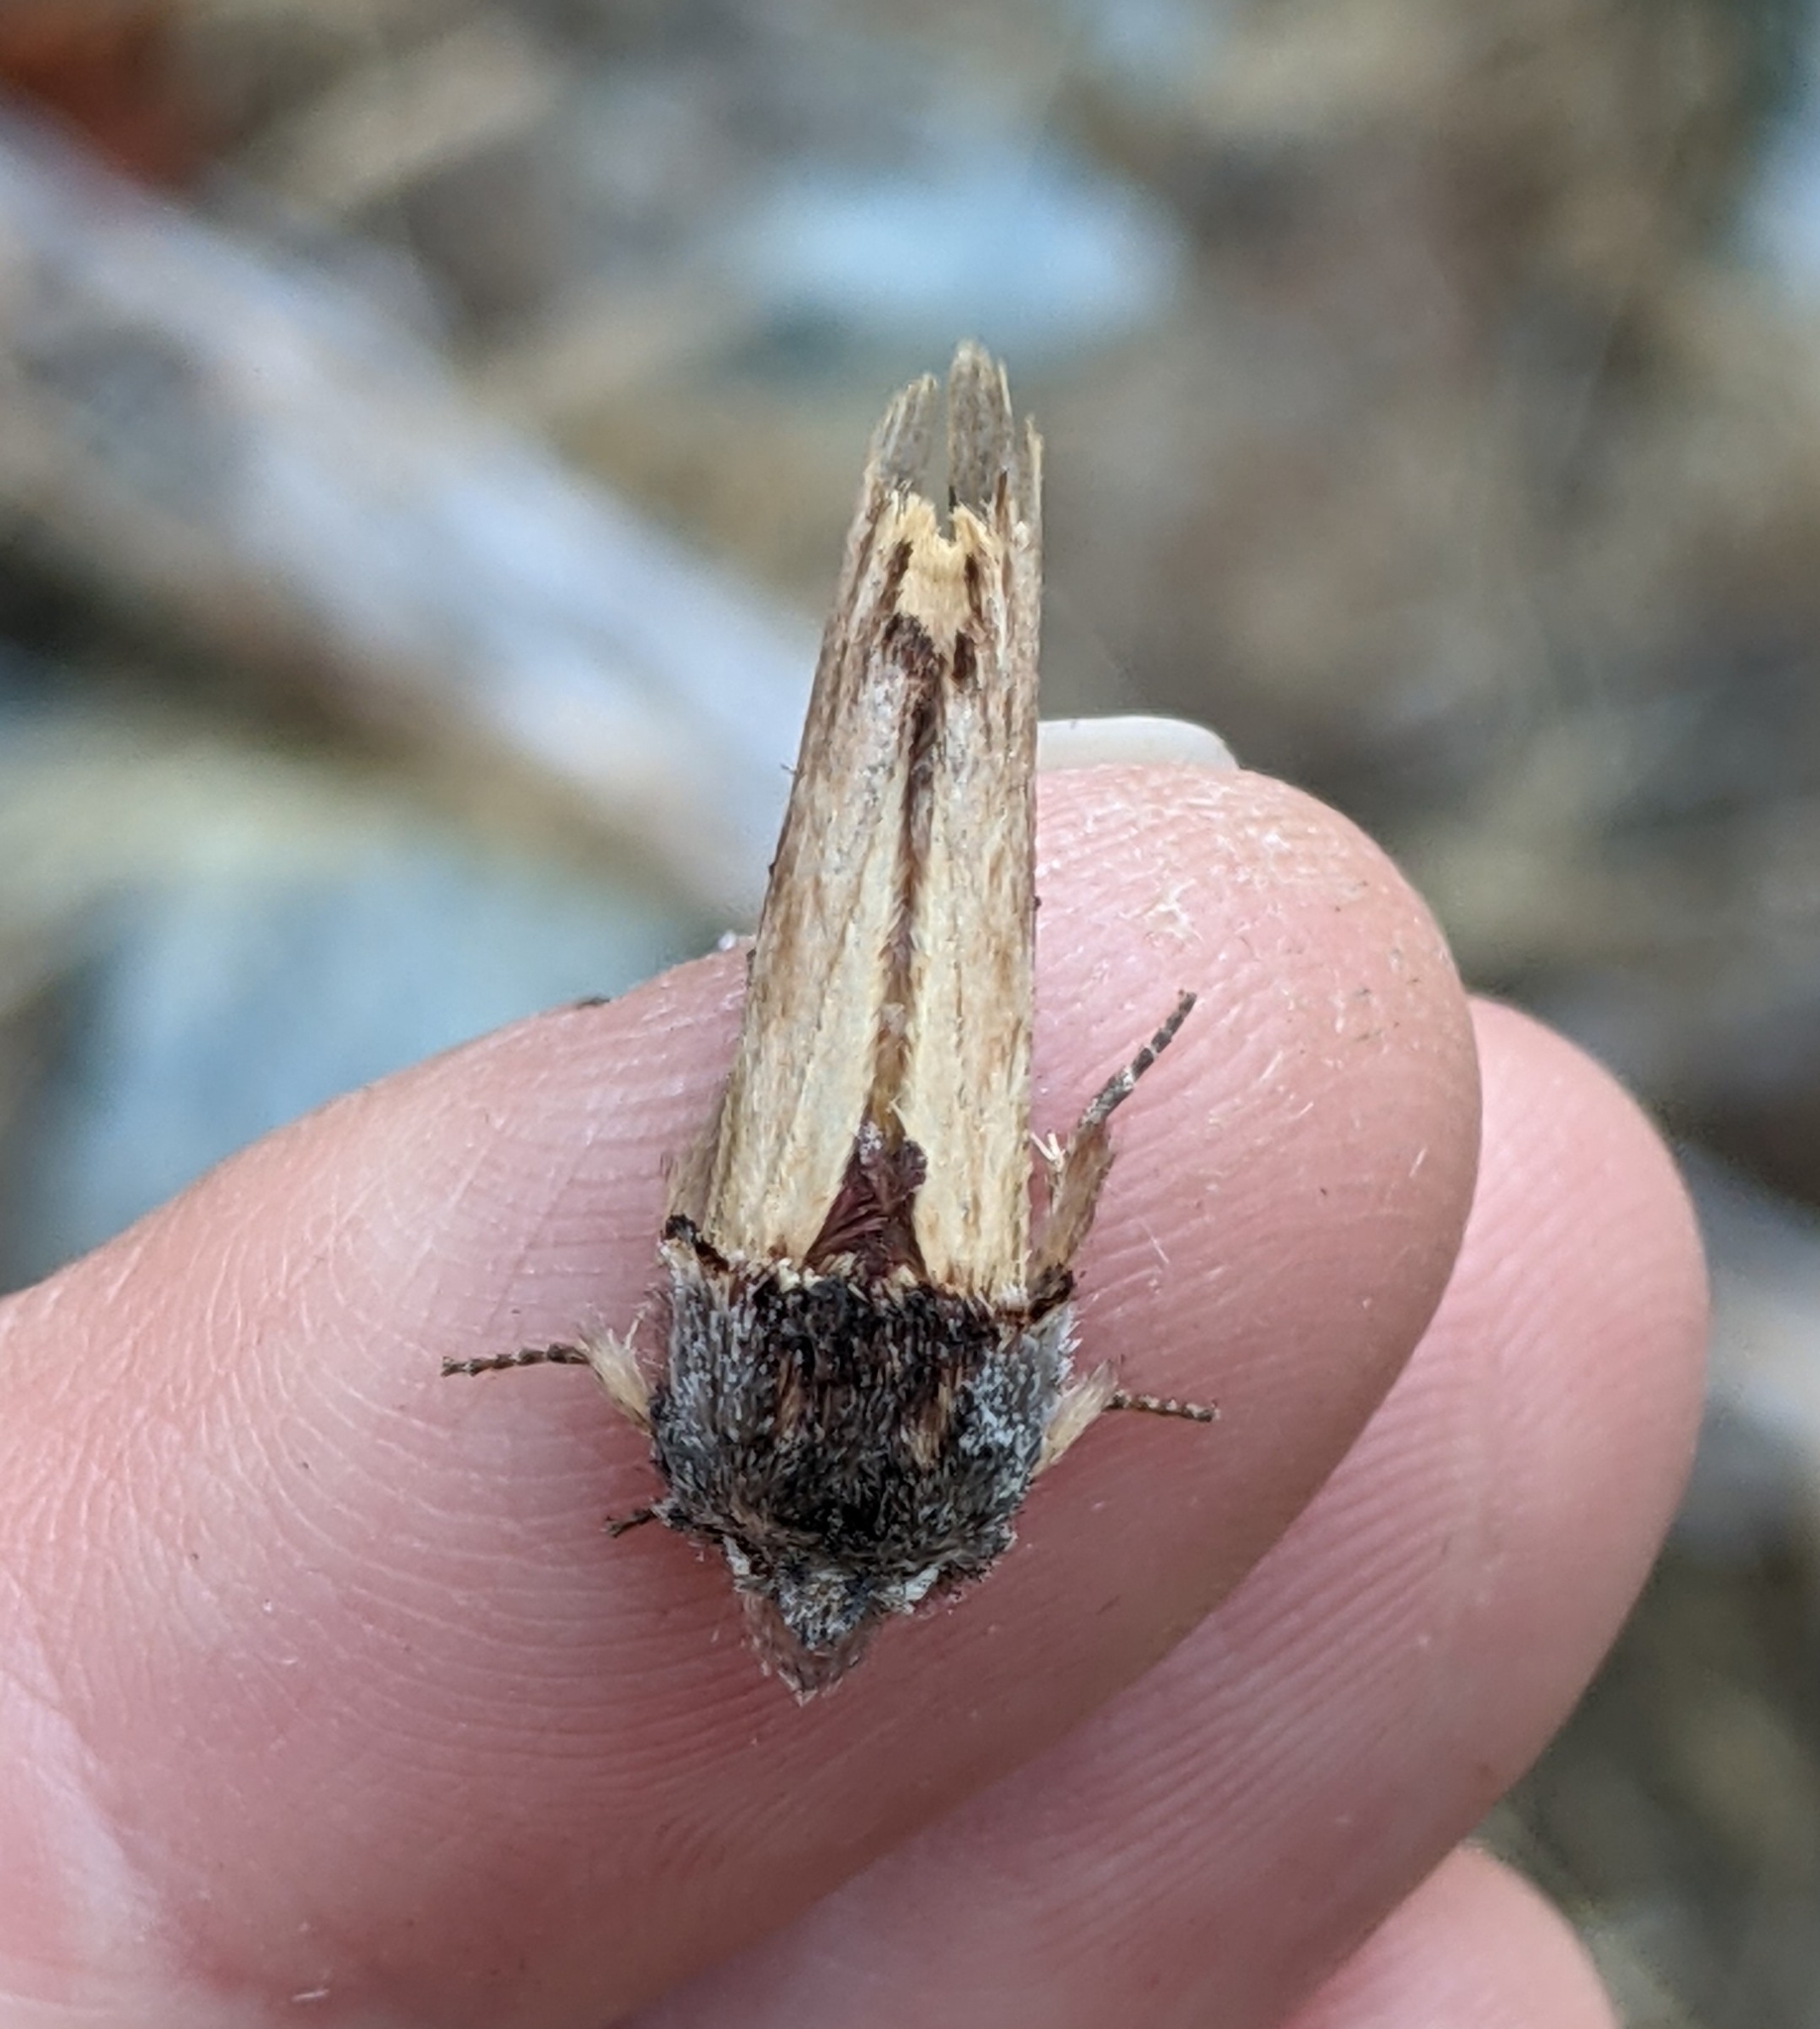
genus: Ianassa
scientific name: Ianassa
